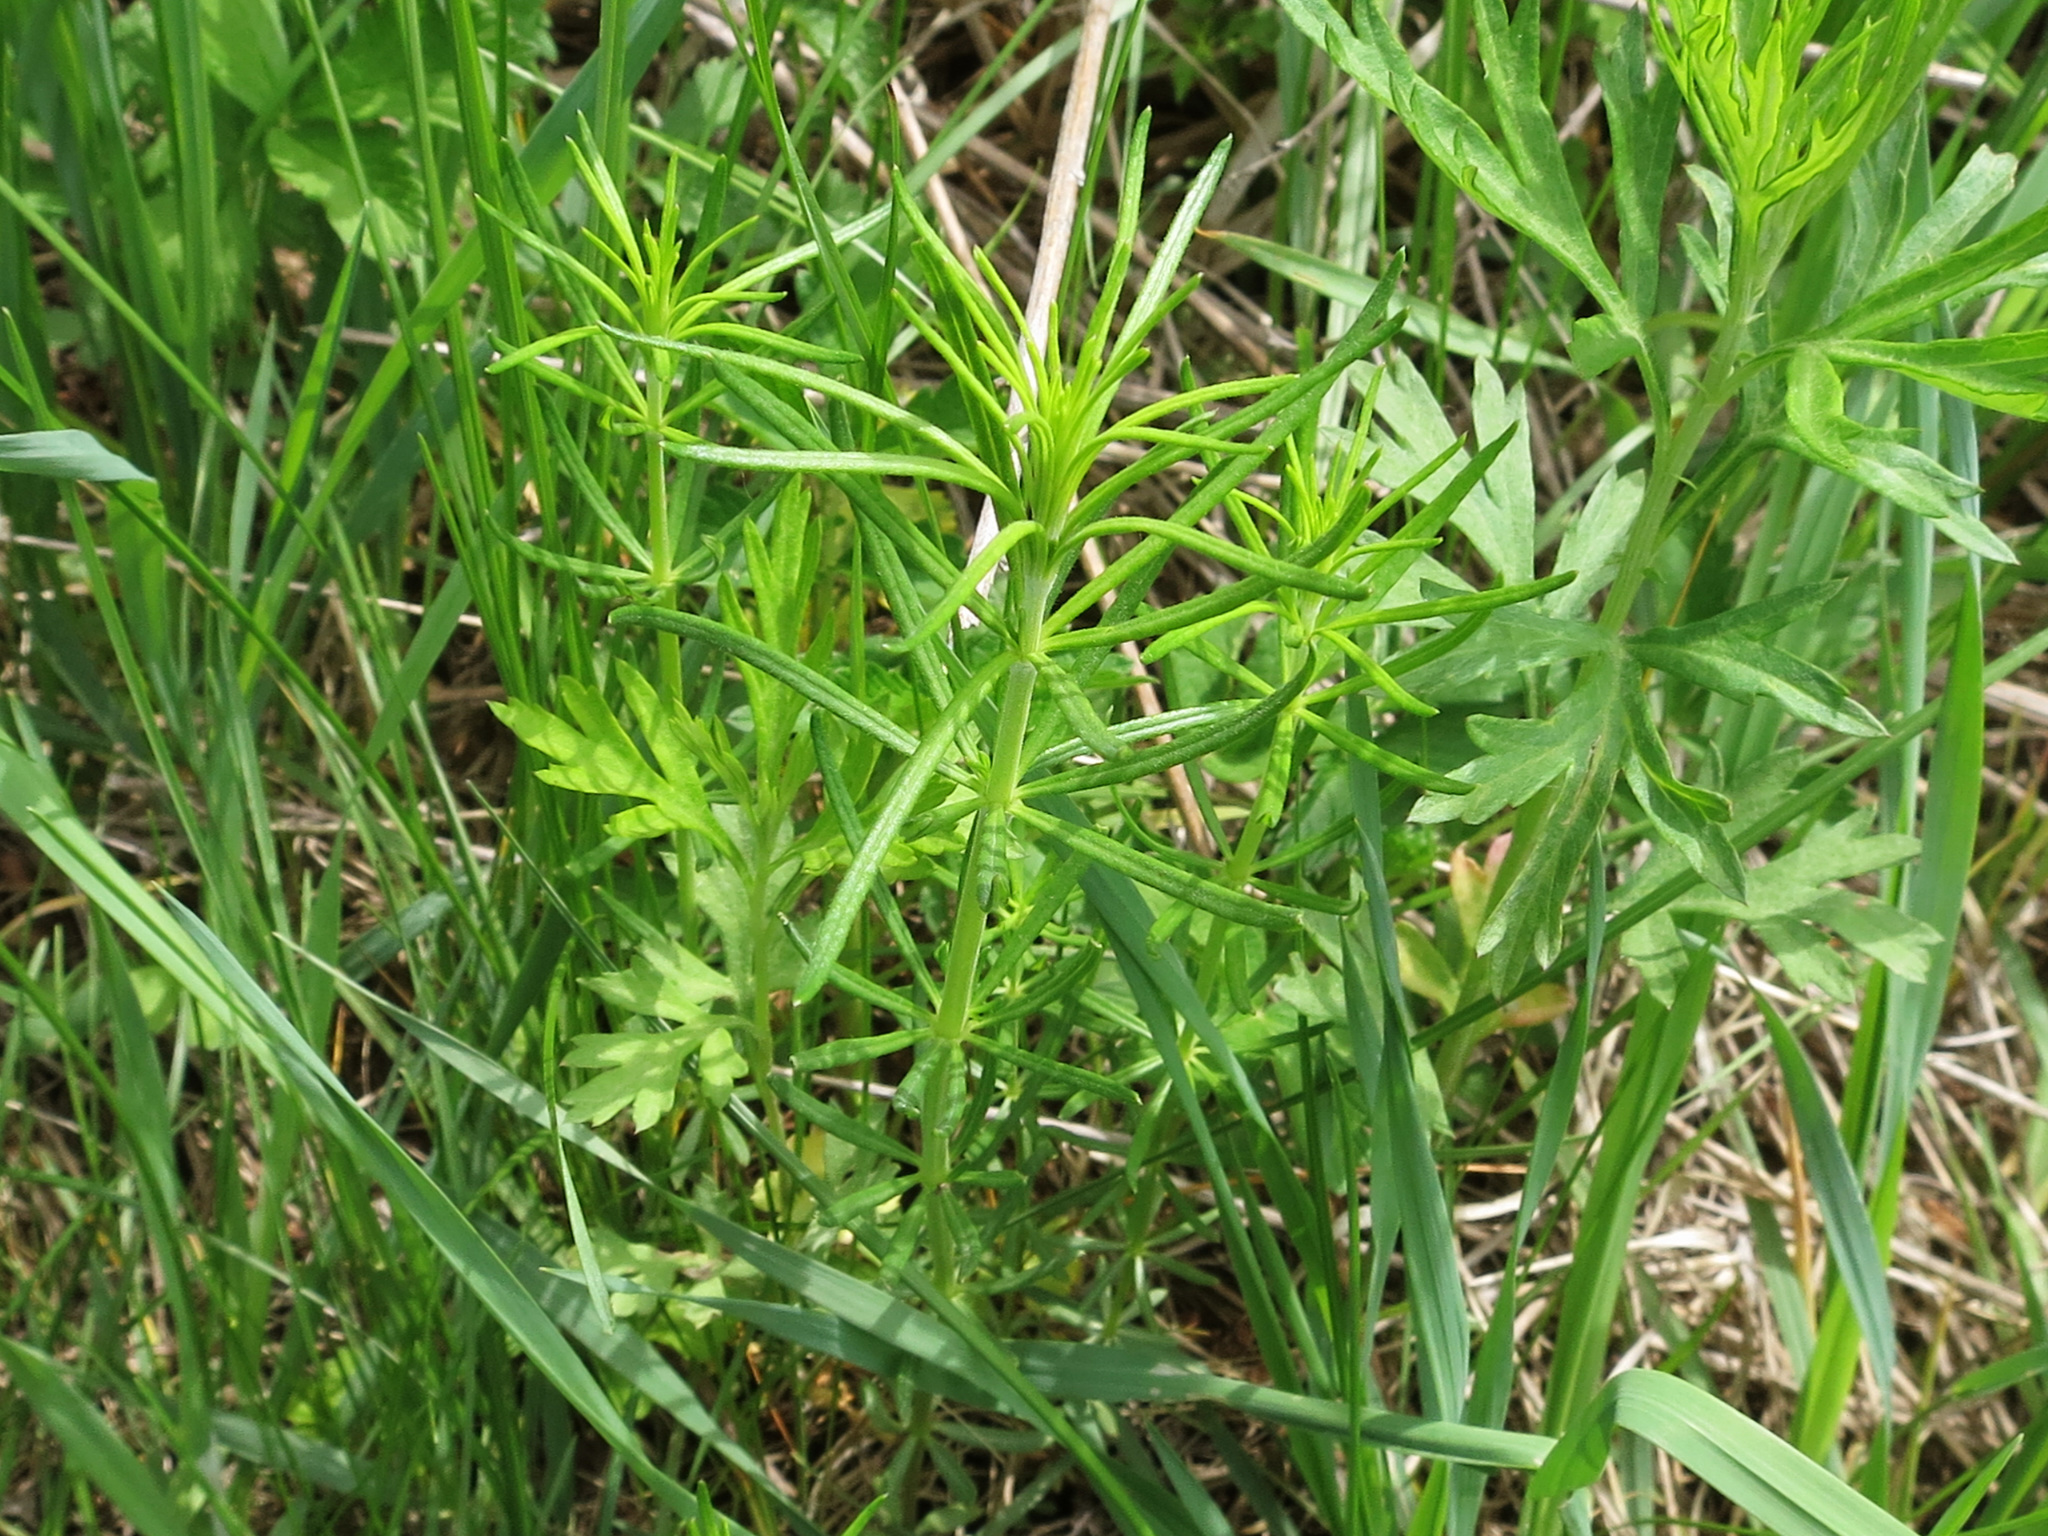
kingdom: Plantae
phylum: Tracheophyta
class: Magnoliopsida
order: Gentianales
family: Rubiaceae
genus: Galium
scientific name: Galium verum
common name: Lady's bedstraw
